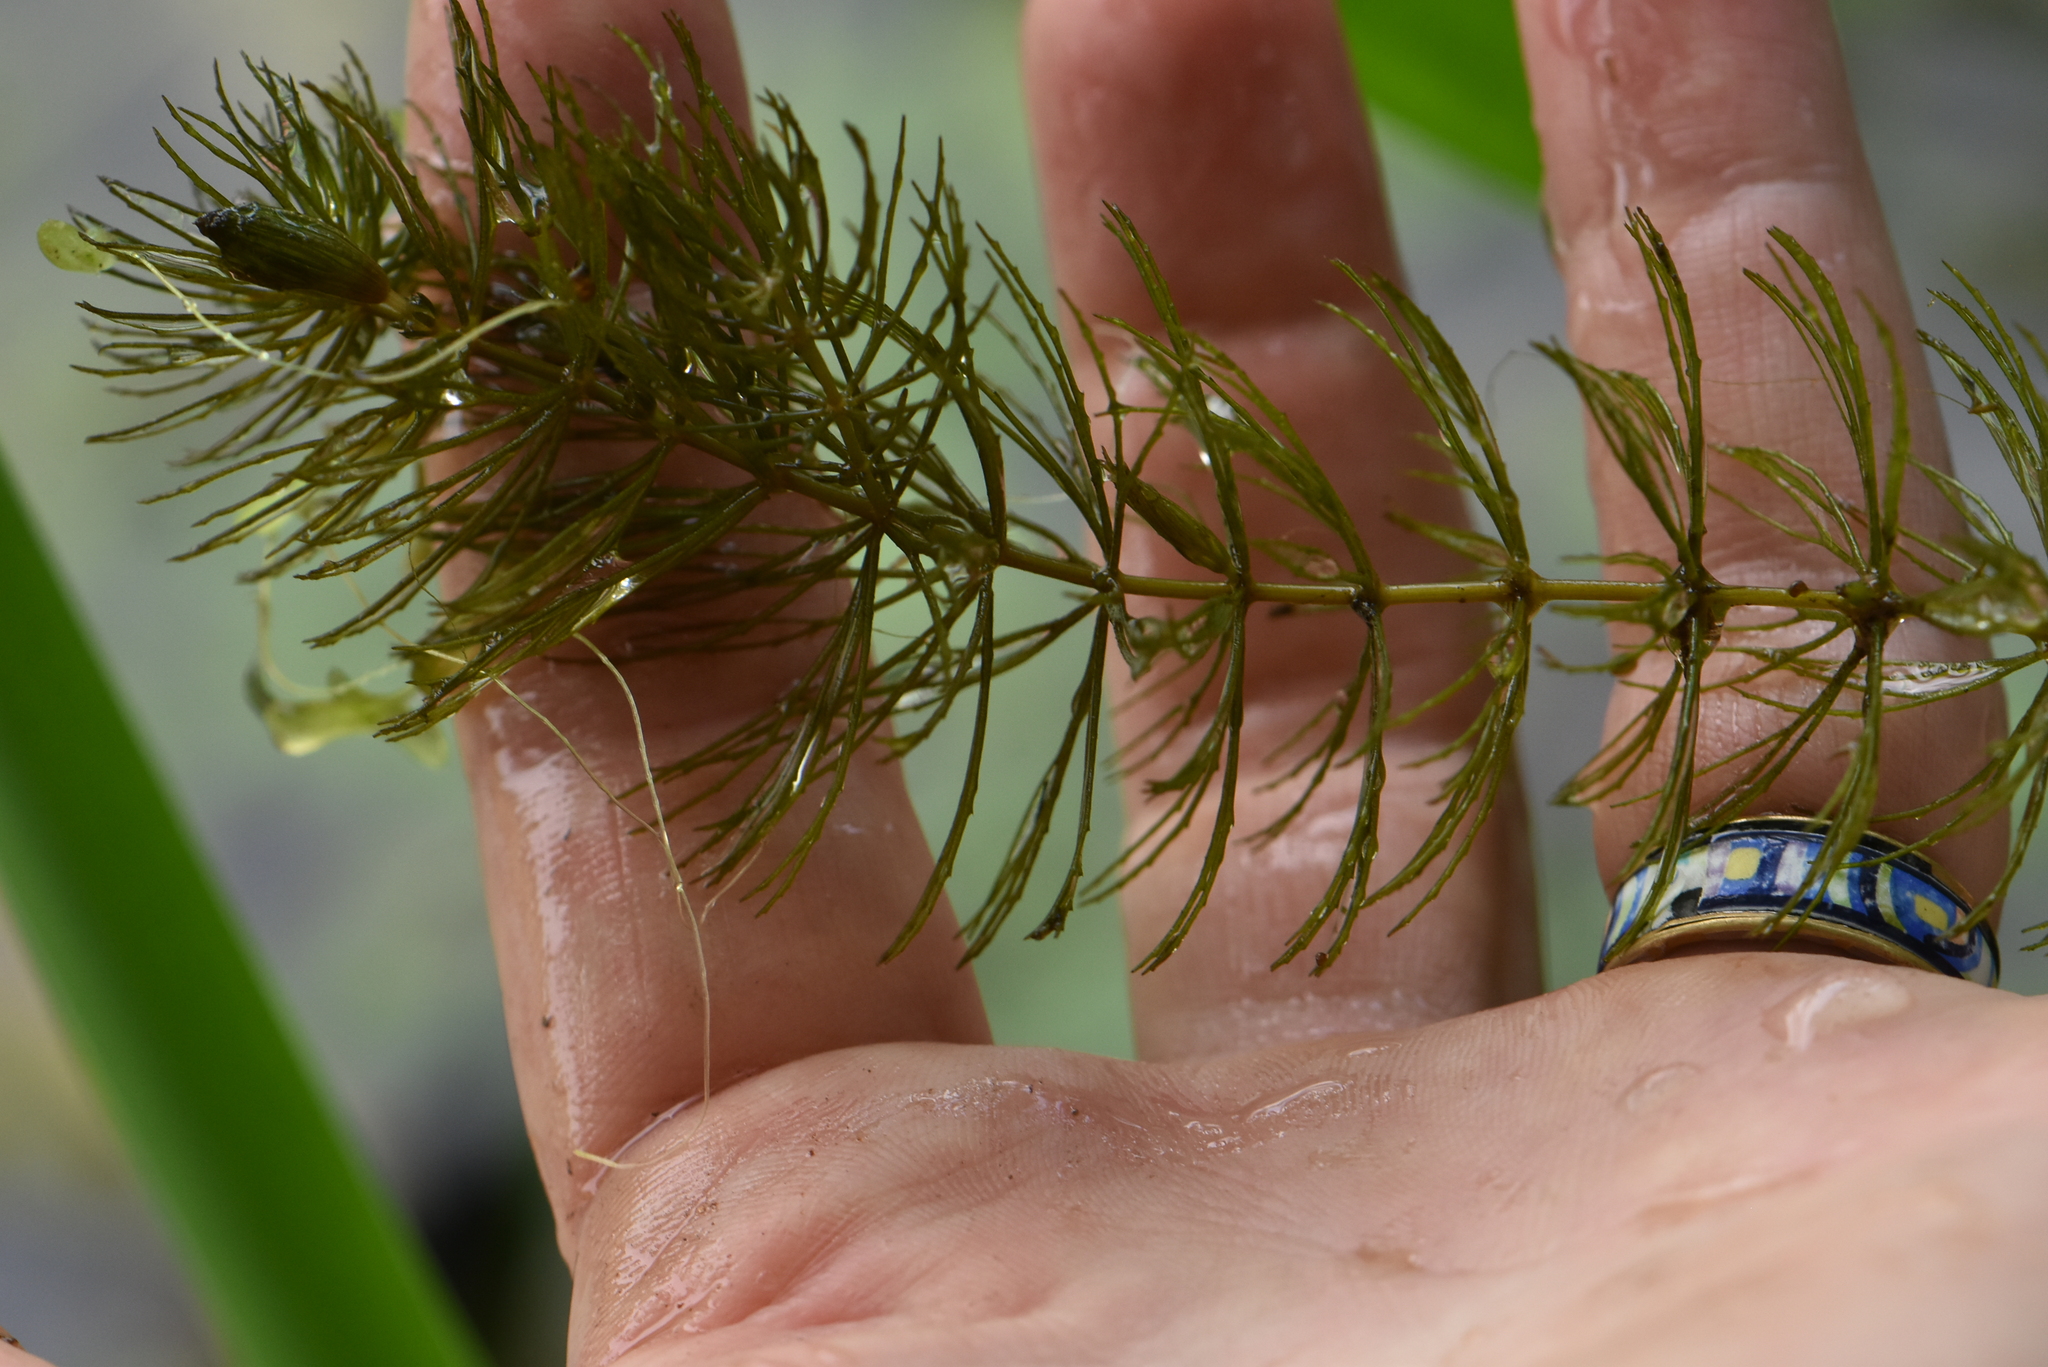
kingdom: Plantae
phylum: Tracheophyta
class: Magnoliopsida
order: Ceratophyllales
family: Ceratophyllaceae
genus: Ceratophyllum
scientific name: Ceratophyllum demersum
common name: Rigid hornwort
